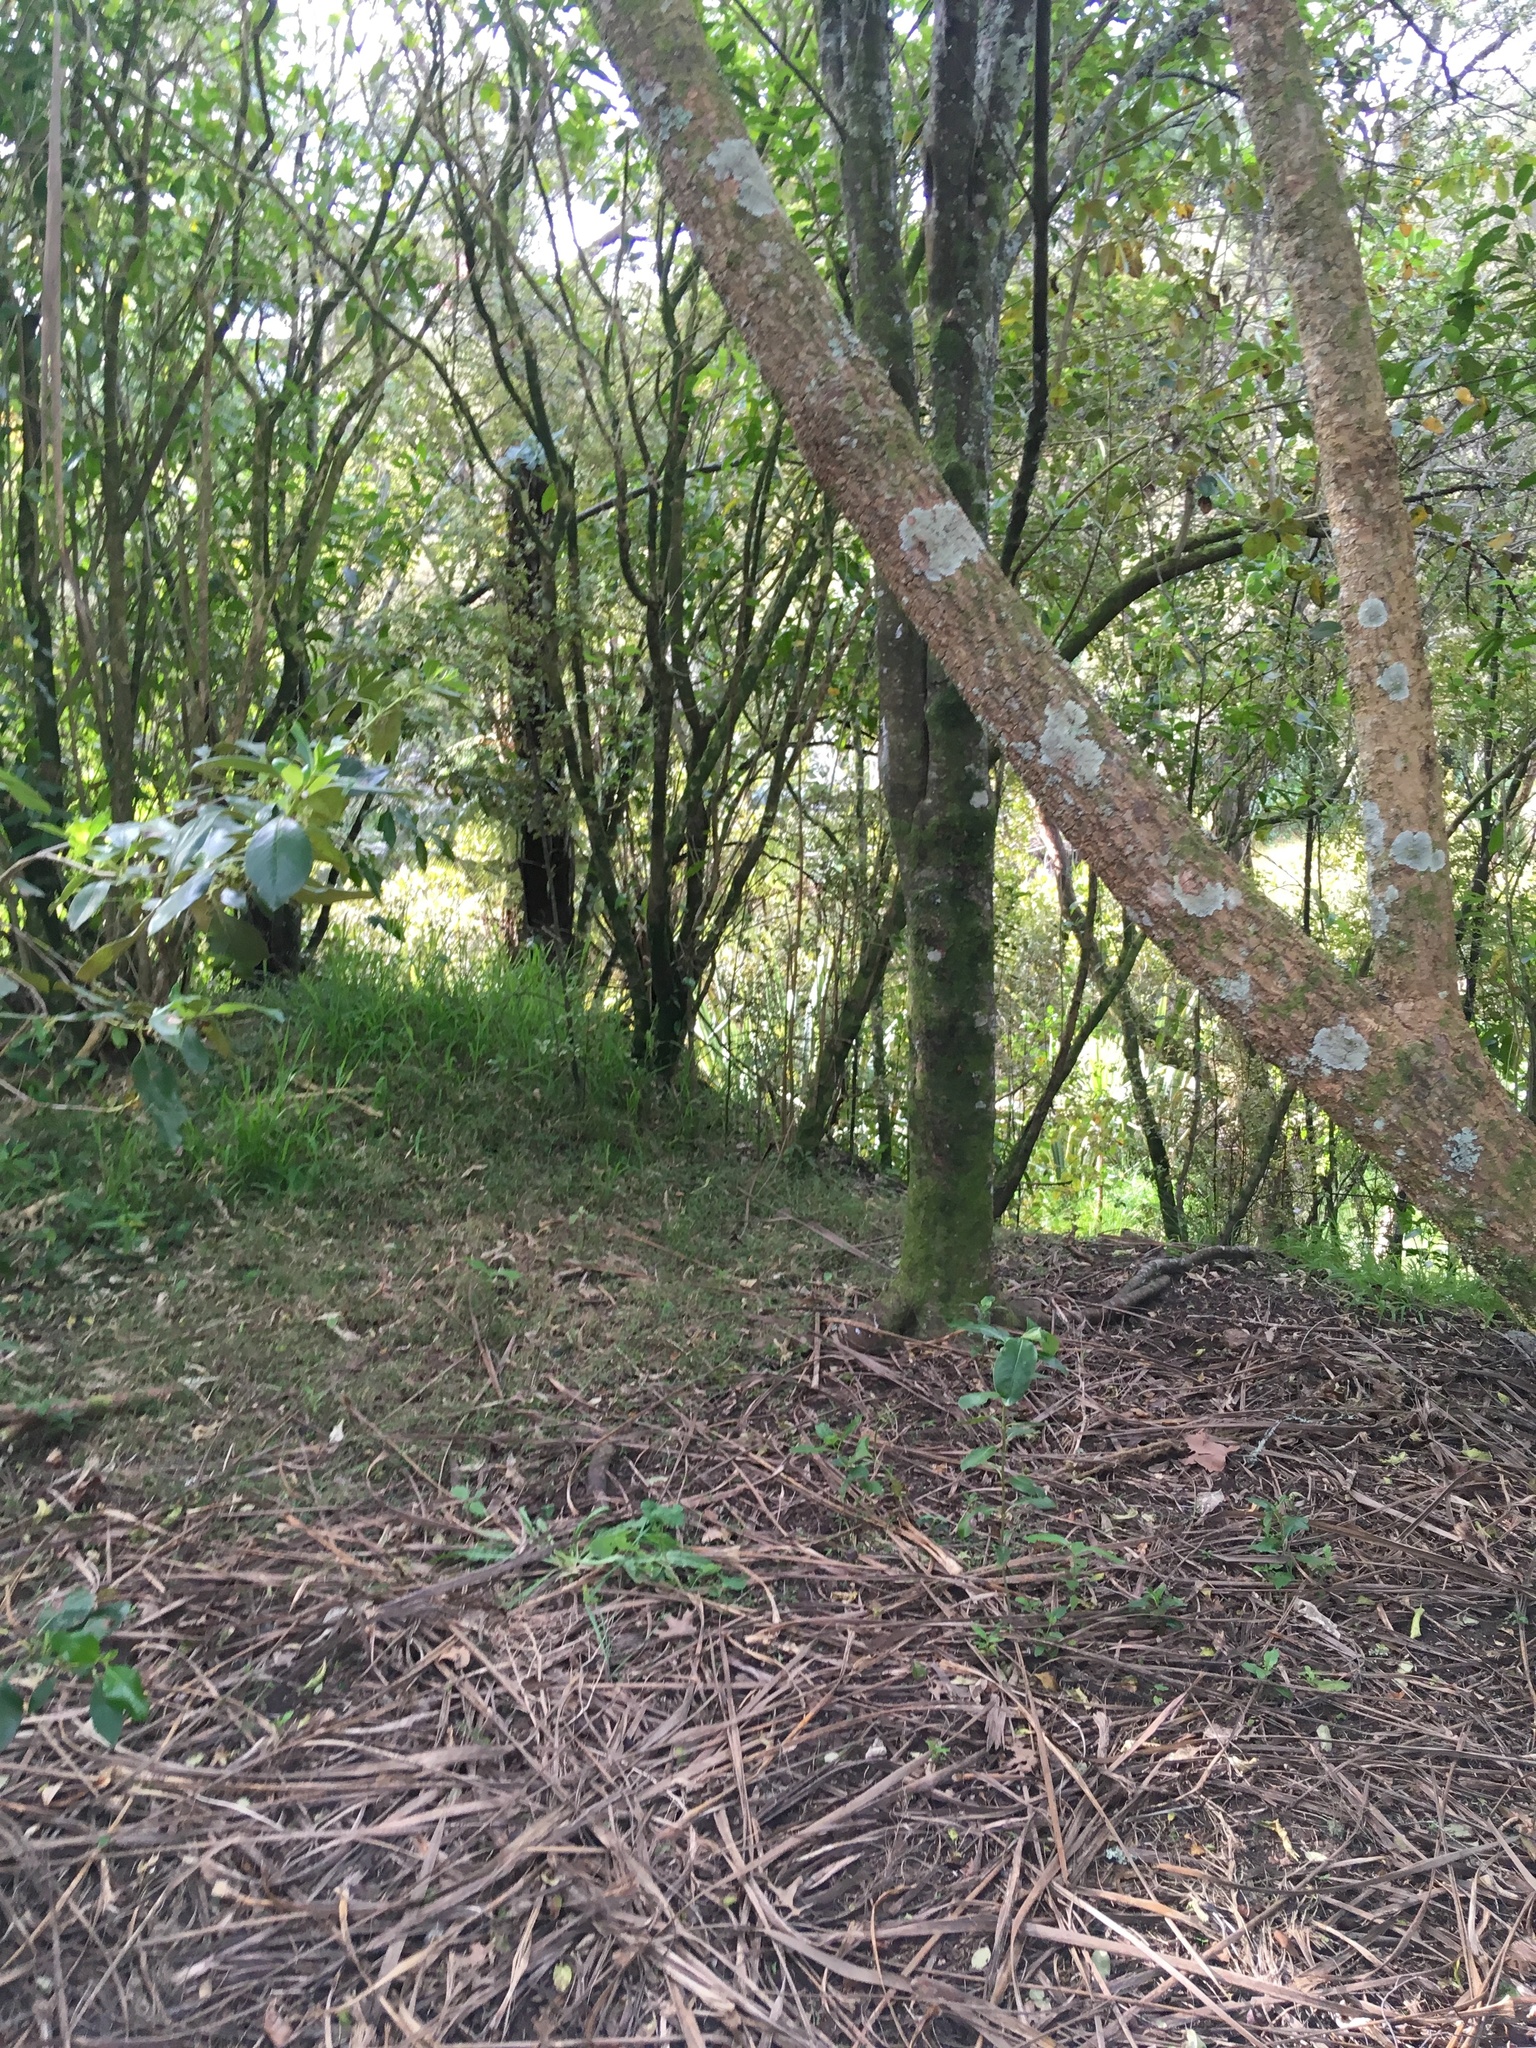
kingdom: Plantae
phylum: Tracheophyta
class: Liliopsida
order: Asparagales
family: Asparagaceae
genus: Cordyline
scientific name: Cordyline australis
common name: Cabbage-palm
